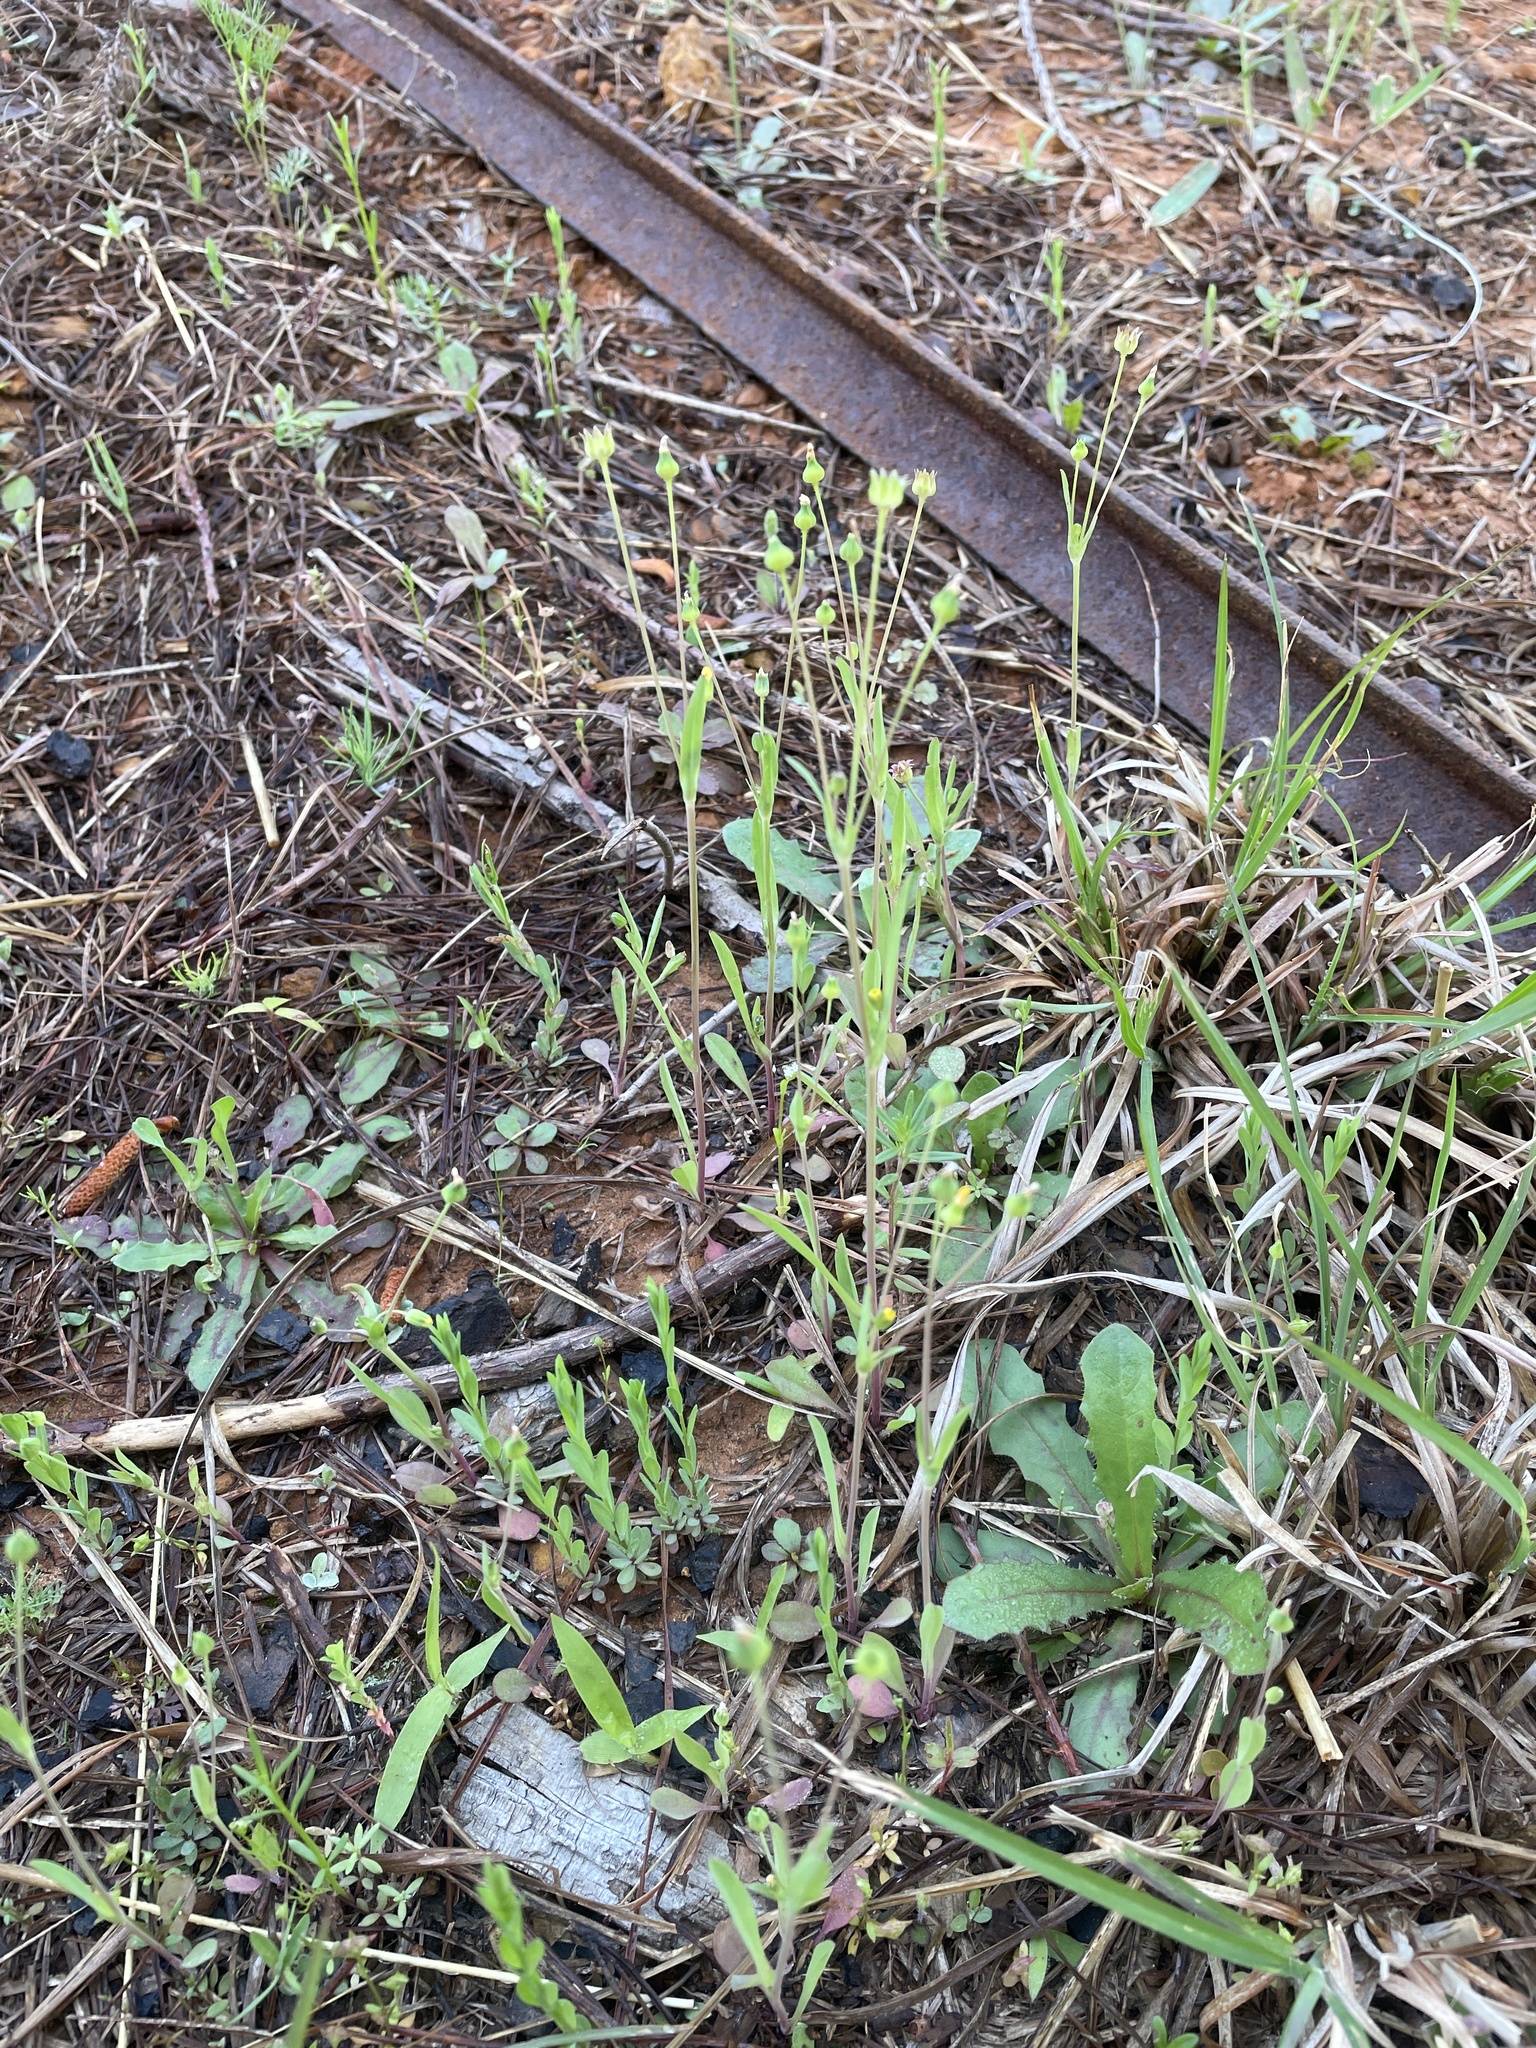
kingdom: Plantae
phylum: Tracheophyta
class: Magnoliopsida
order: Asterales
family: Asteraceae
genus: Krigia
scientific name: Krigia cespitosa
